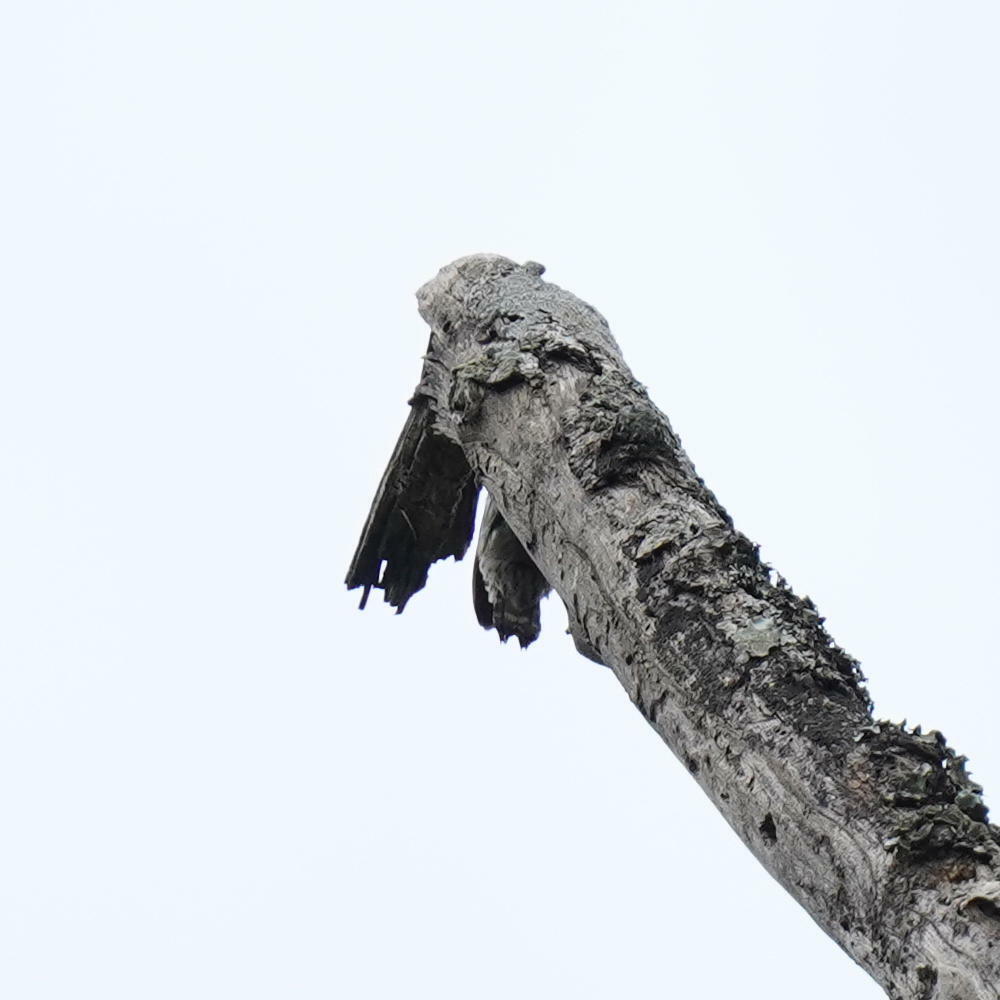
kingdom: Animalia
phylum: Chordata
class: Aves
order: Piciformes
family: Picidae
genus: Yungipicus
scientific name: Yungipicus nanus
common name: Brown-capped pygmy woodpecker
